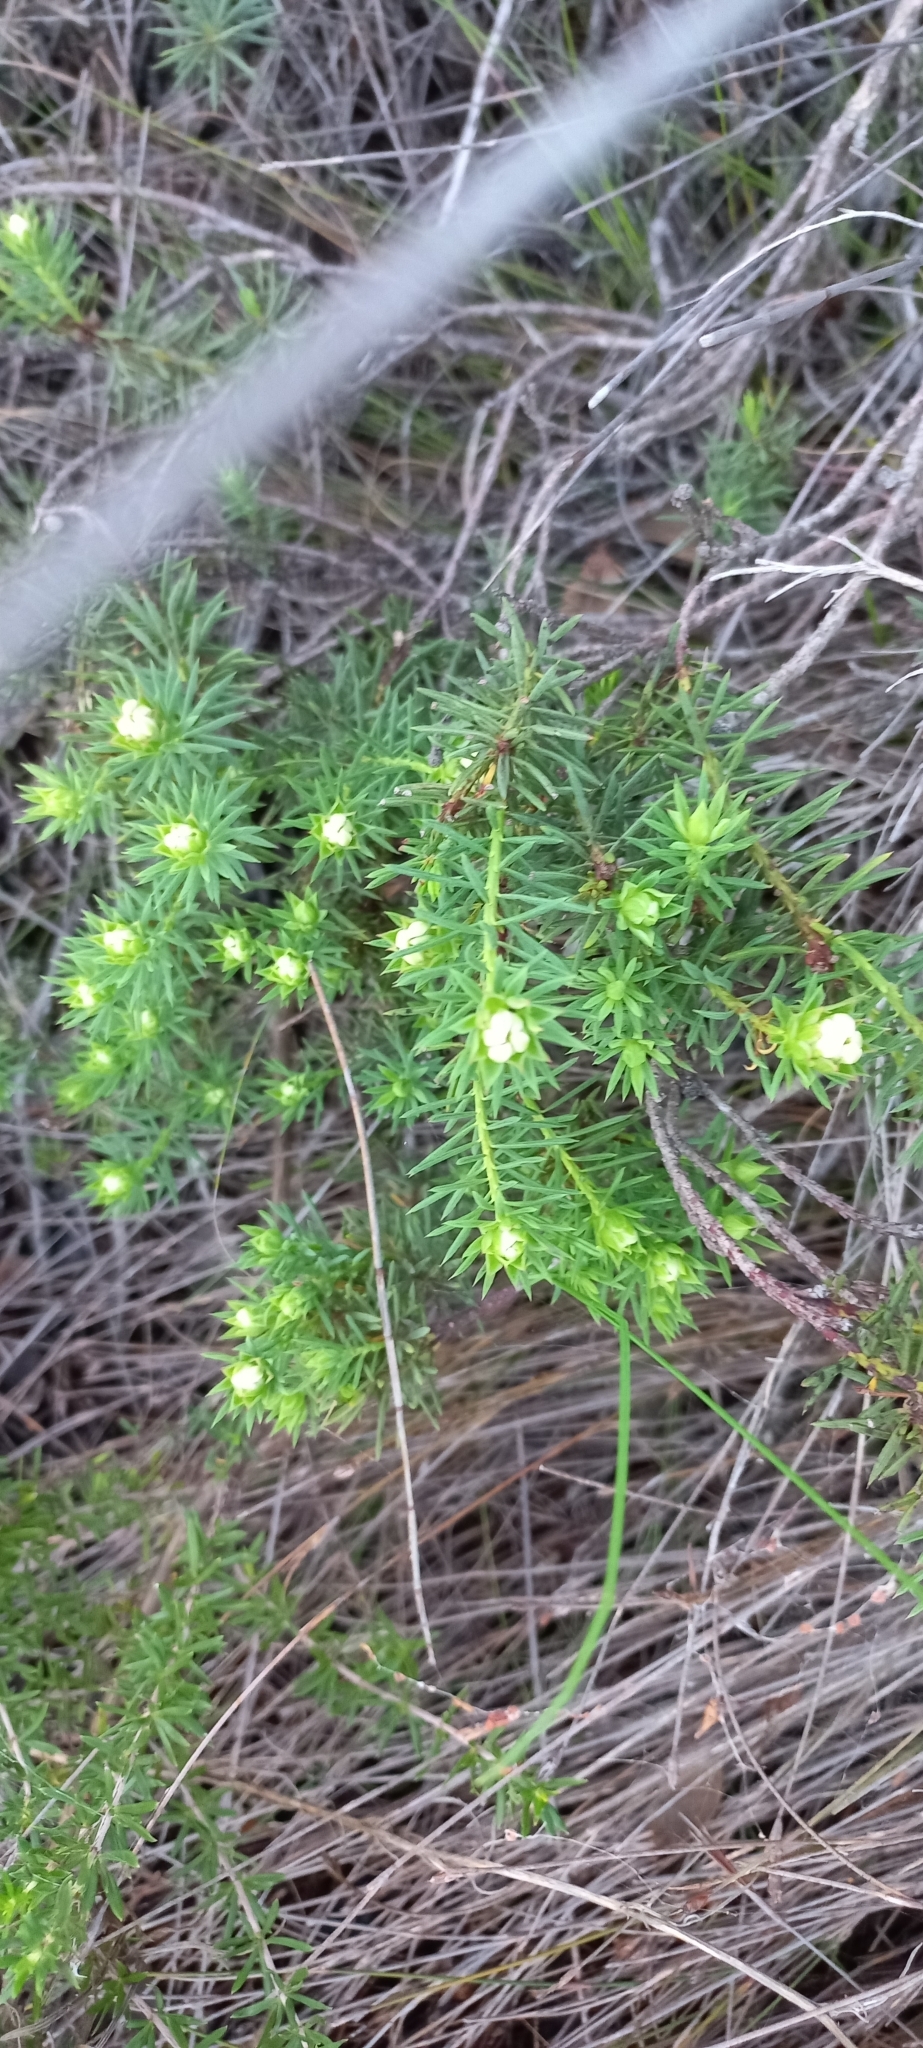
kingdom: Plantae
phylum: Tracheophyta
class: Magnoliopsida
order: Malvales
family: Thymelaeaceae
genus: Gnidia
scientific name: Gnidia pinifolia
